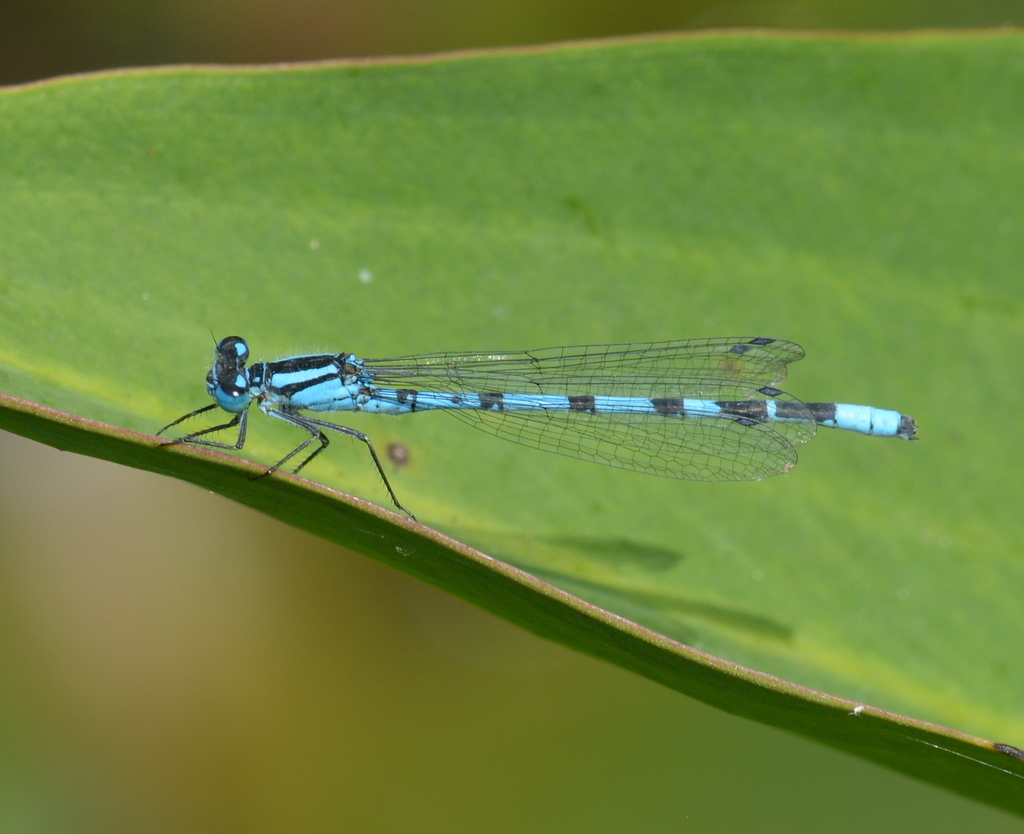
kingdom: Animalia
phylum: Arthropoda
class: Insecta
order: Odonata
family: Coenagrionidae
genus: Enallagma
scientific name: Enallagma cyathigerum
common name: Common blue damselfly
